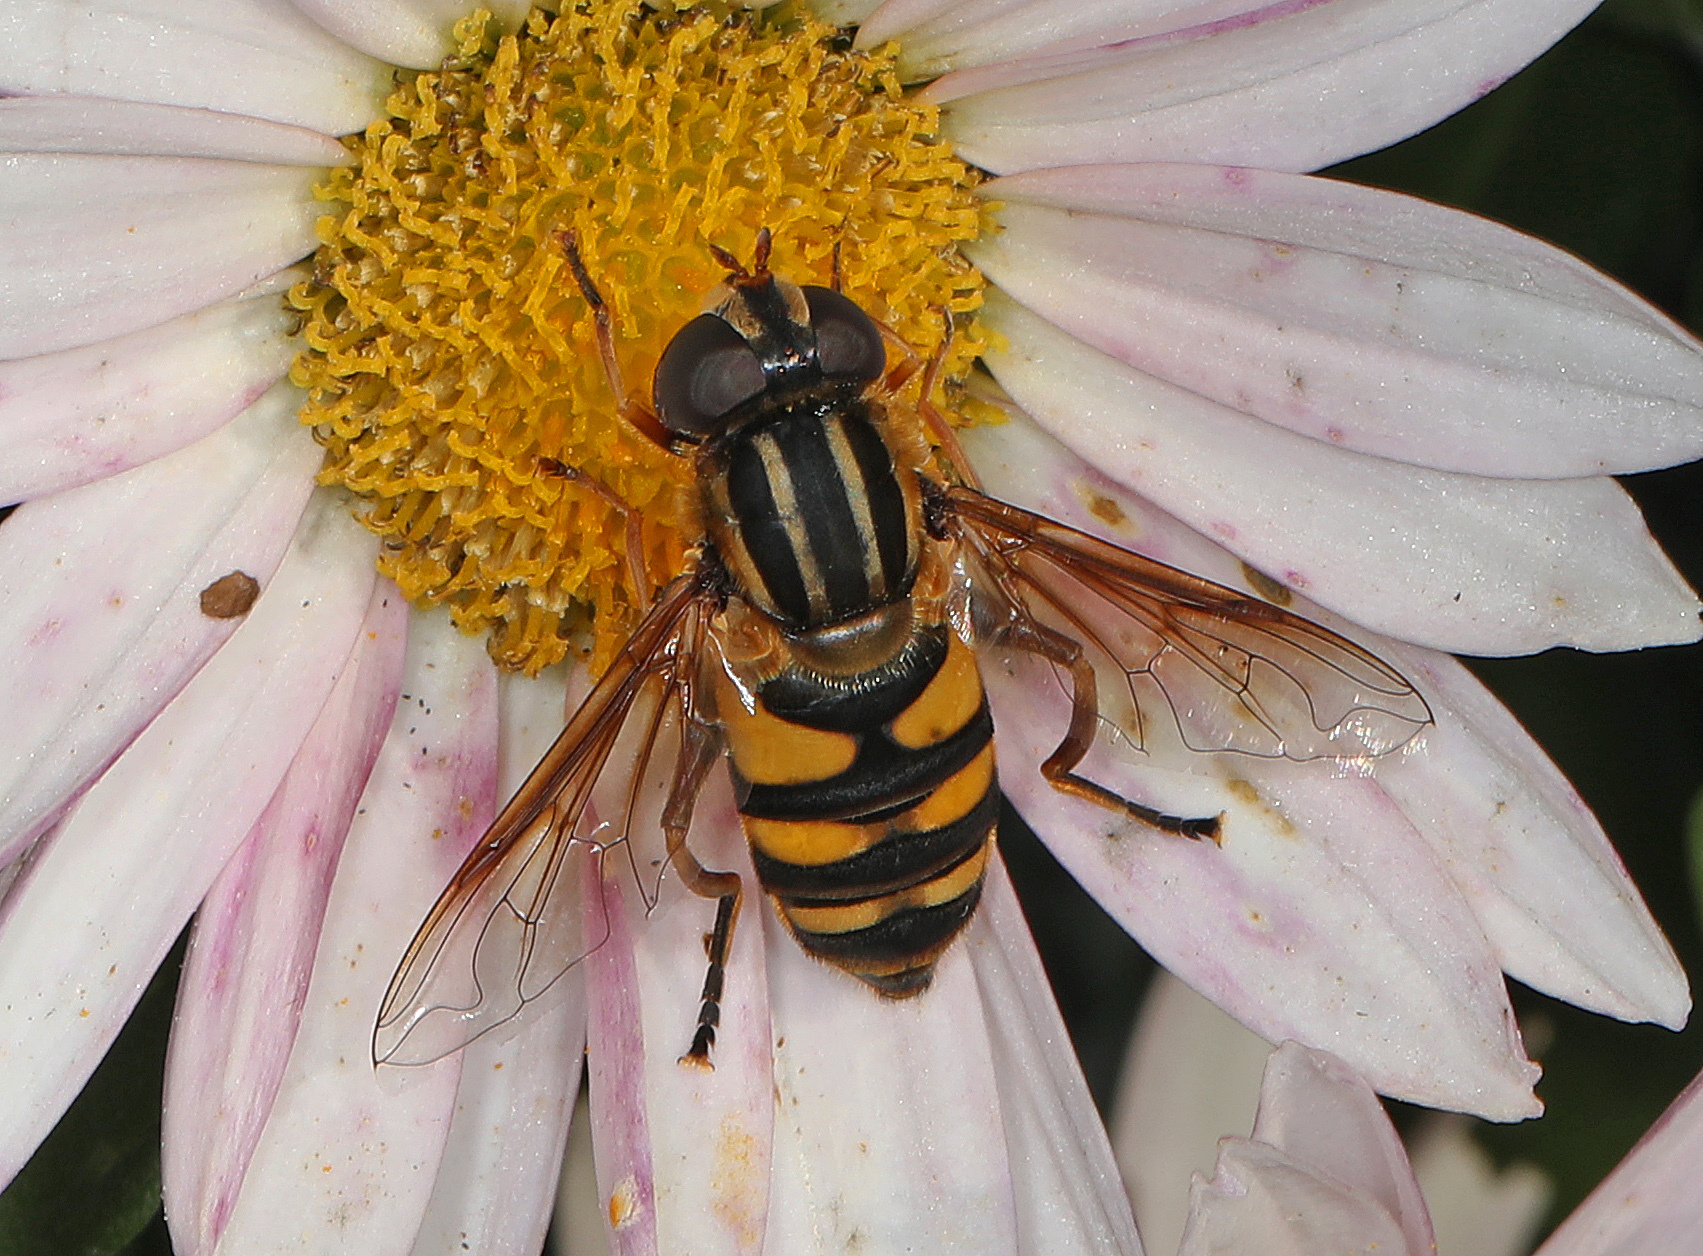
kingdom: Animalia
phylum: Arthropoda
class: Insecta
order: Diptera
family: Syrphidae
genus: Helophilus
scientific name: Helophilus fasciatus
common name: Narrow-headed marsh fly
